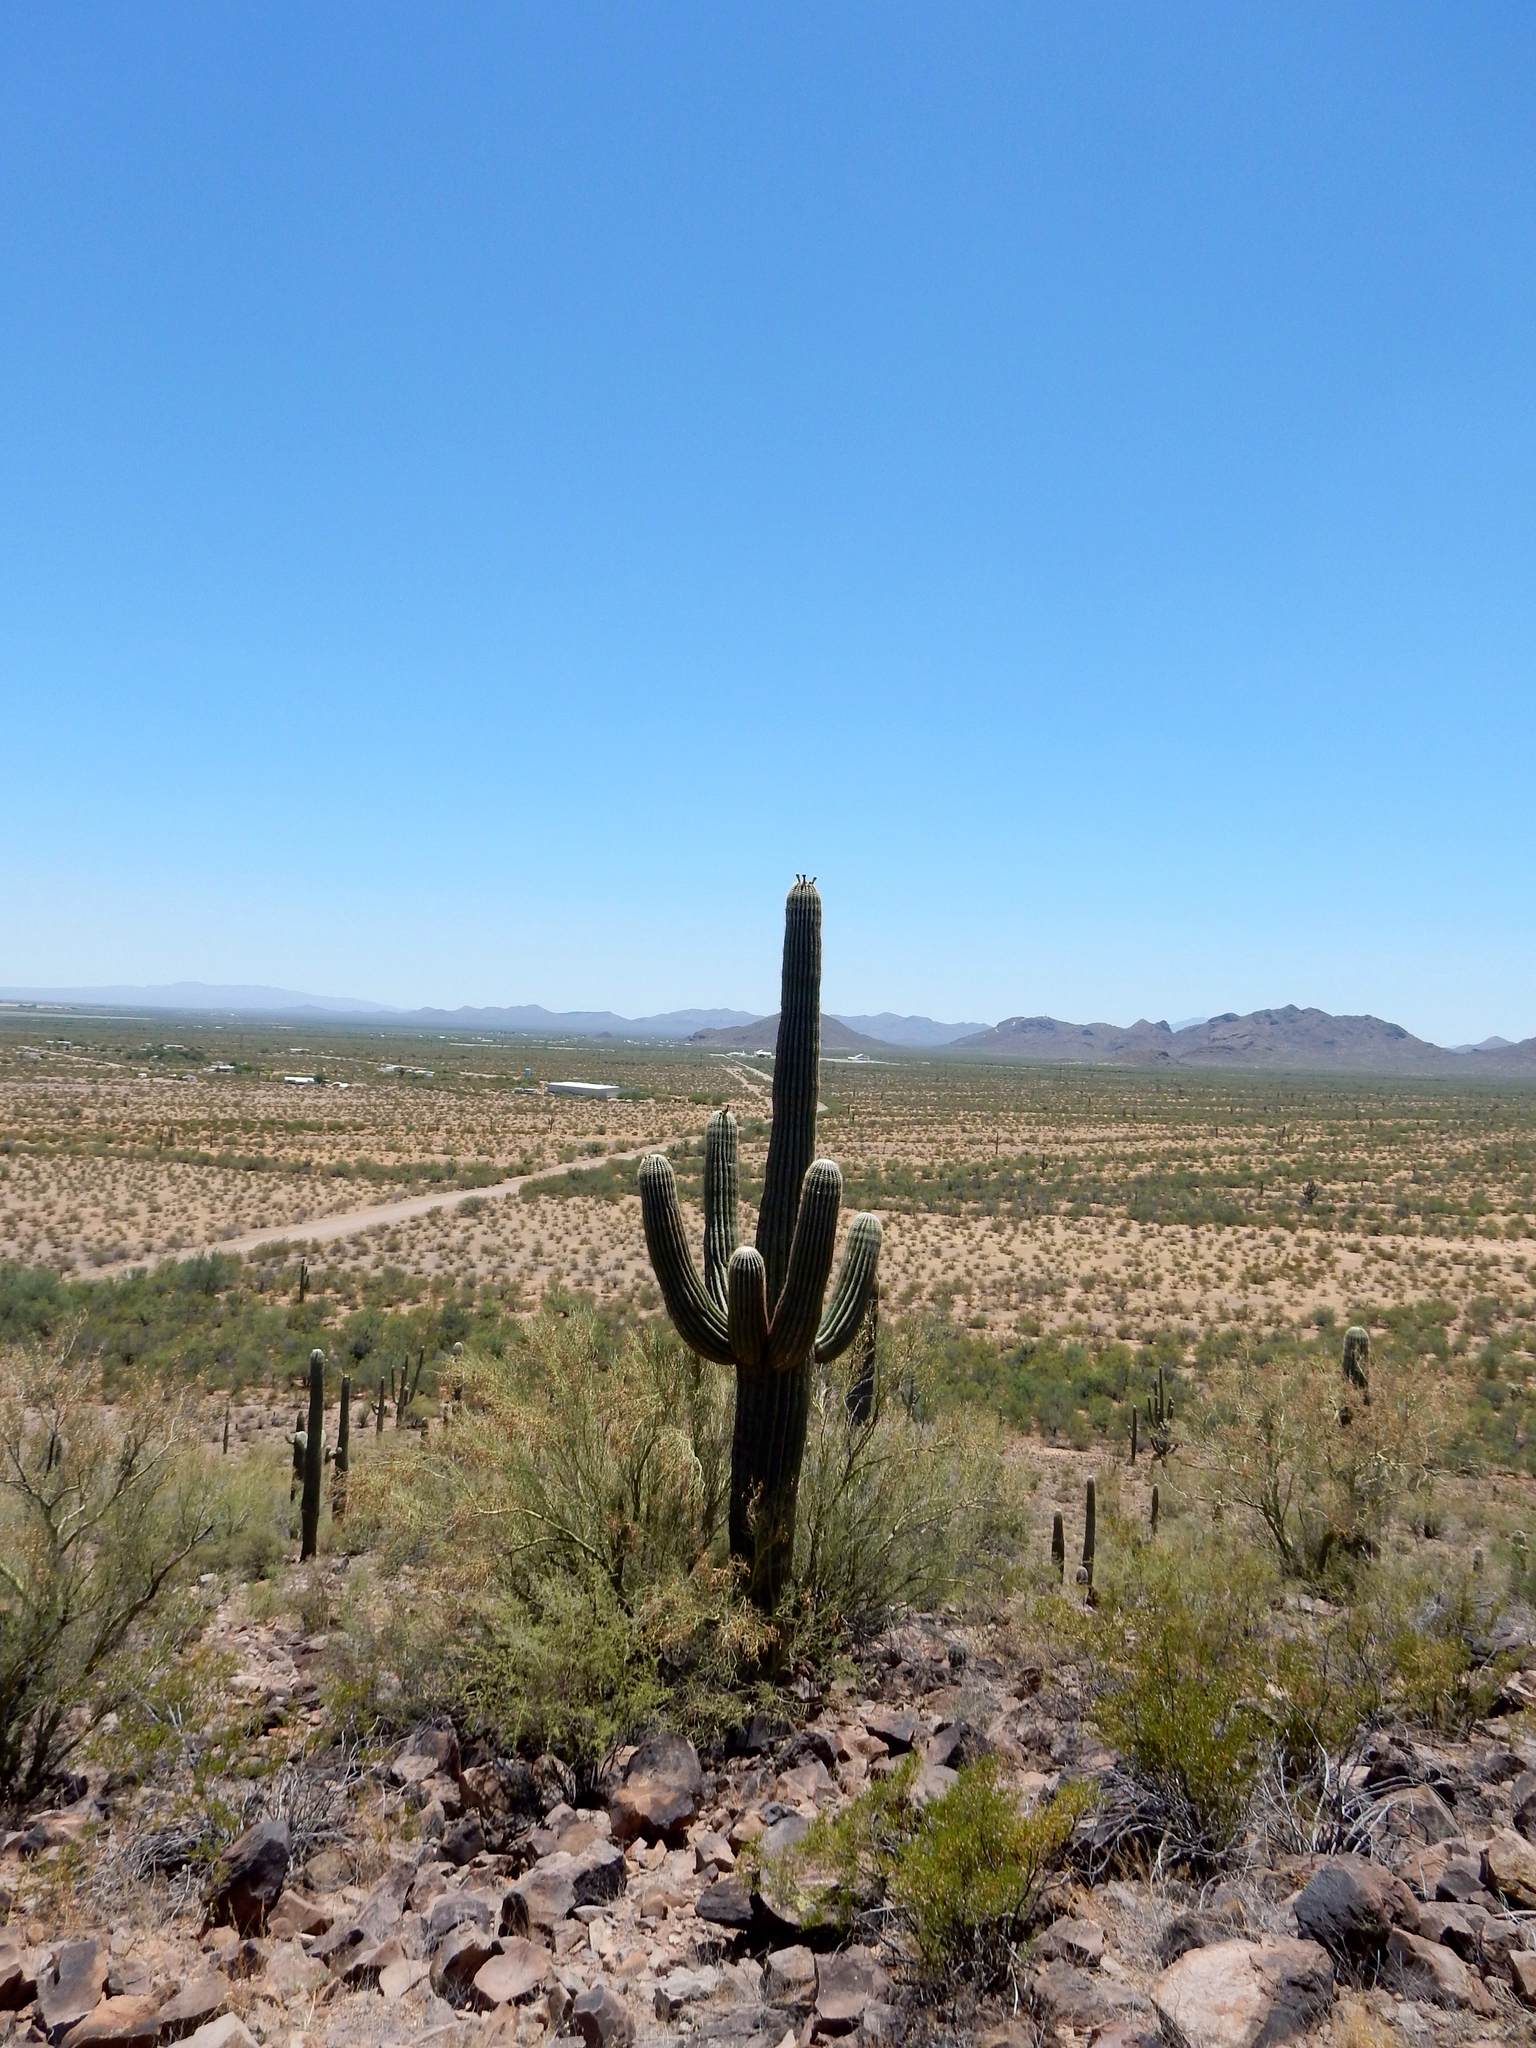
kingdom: Plantae
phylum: Tracheophyta
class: Magnoliopsida
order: Caryophyllales
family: Cactaceae
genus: Carnegiea
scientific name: Carnegiea gigantea
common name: Saguaro
